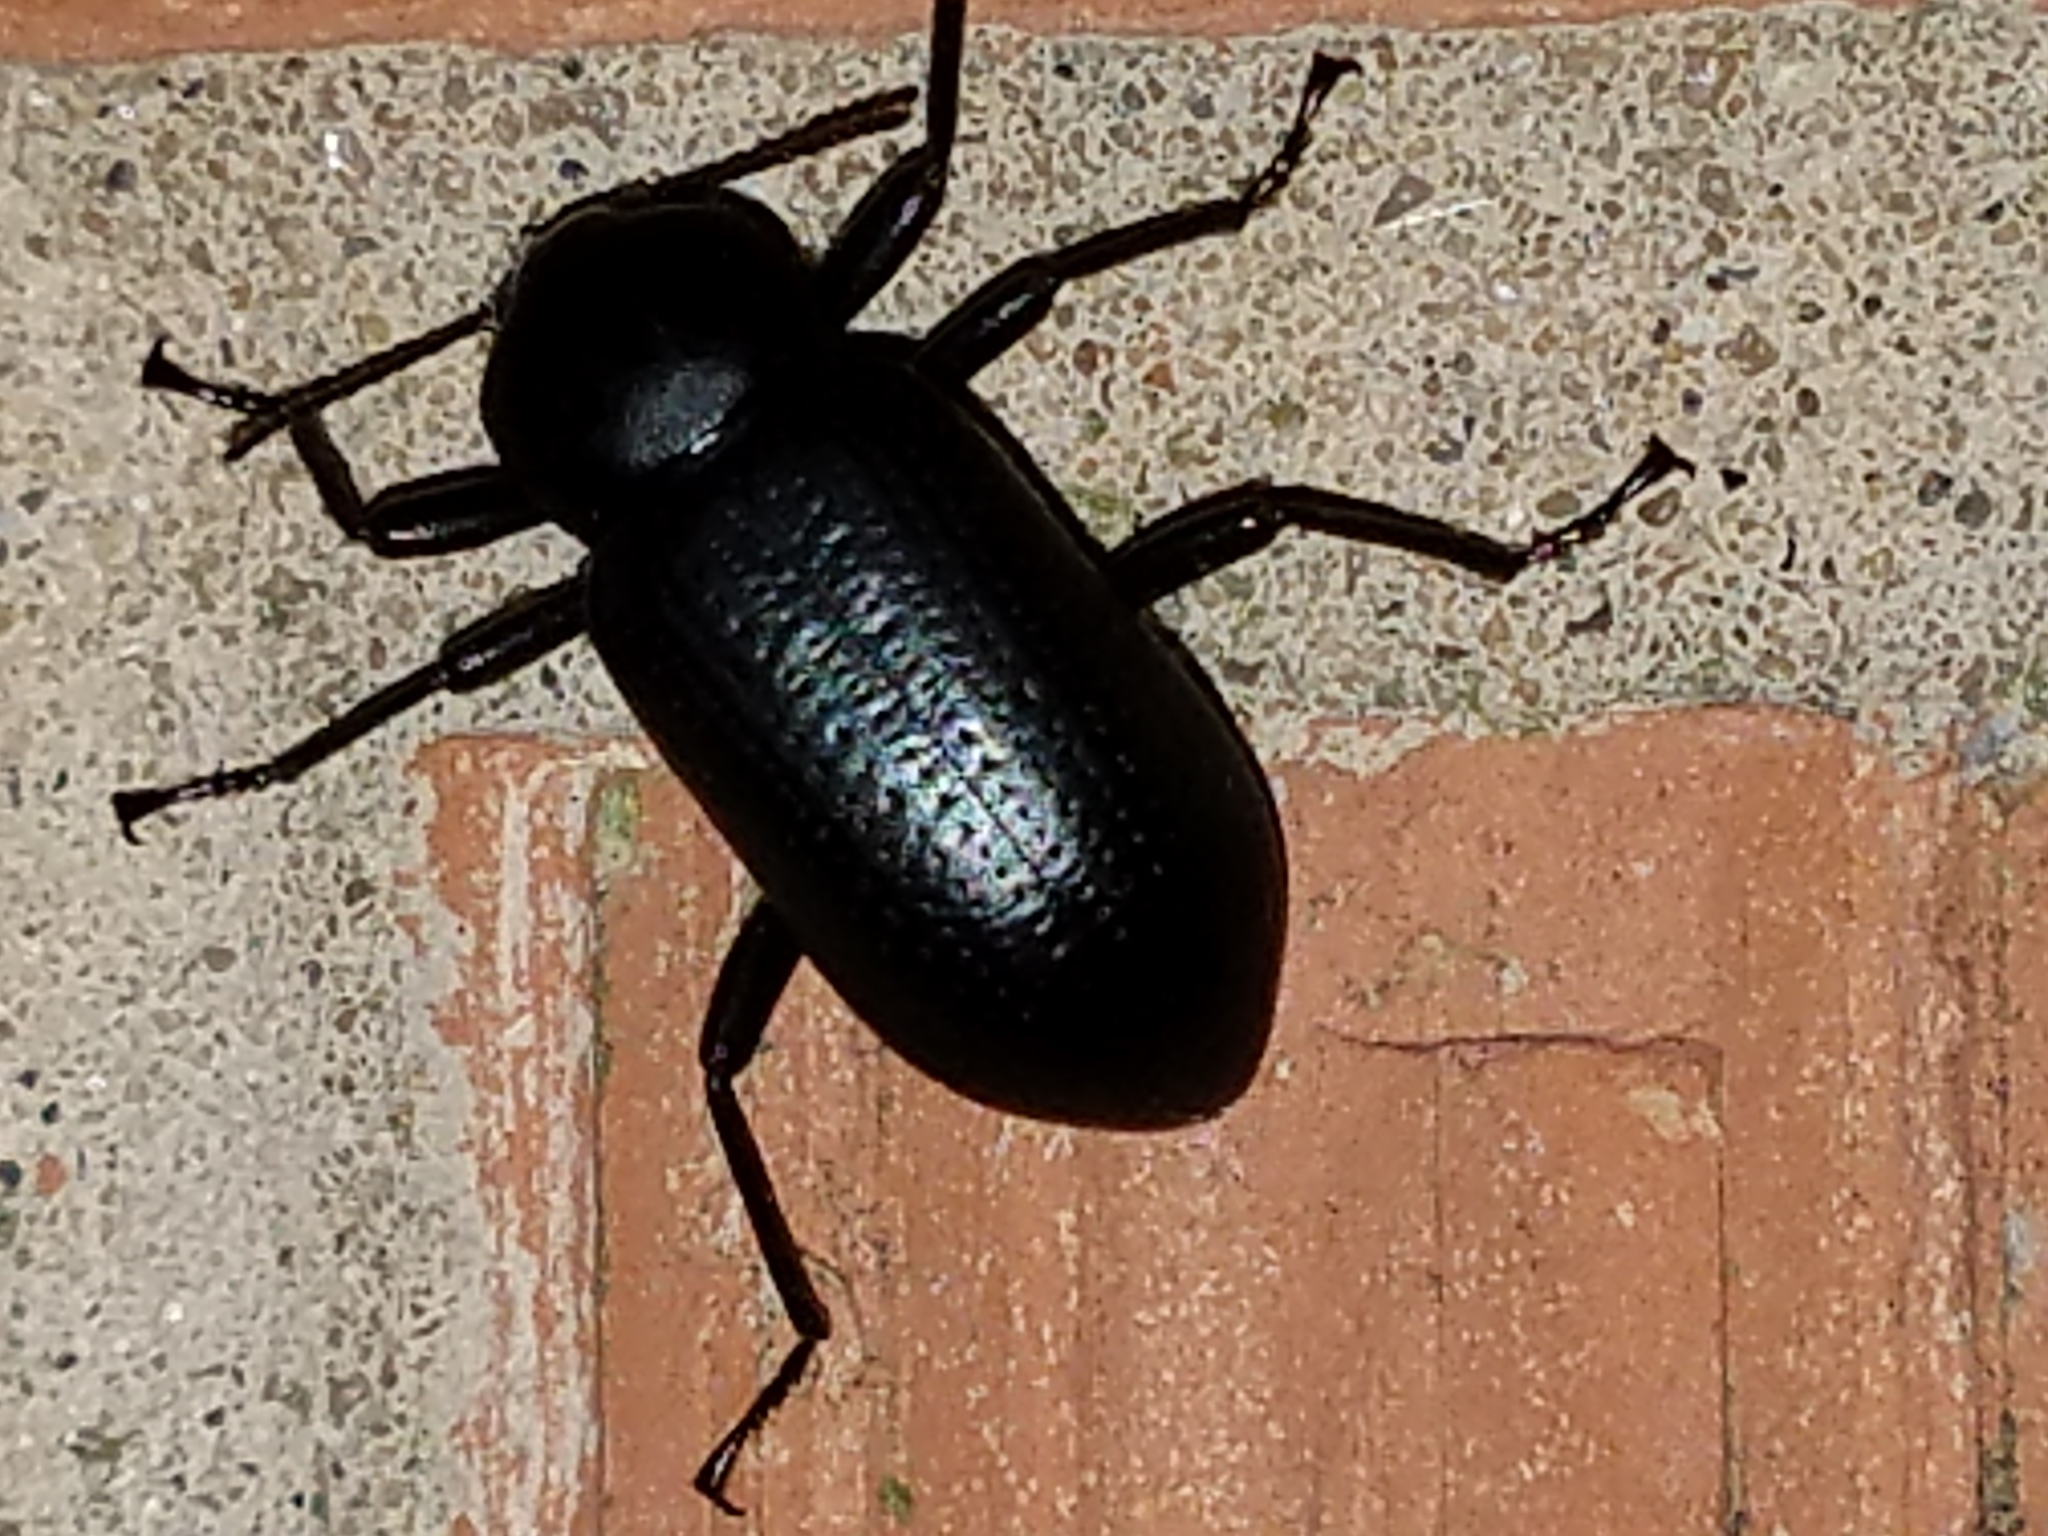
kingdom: Animalia
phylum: Arthropoda
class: Insecta
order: Coleoptera
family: Tenebrionidae
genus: Glyptotus
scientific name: Glyptotus cribratus
